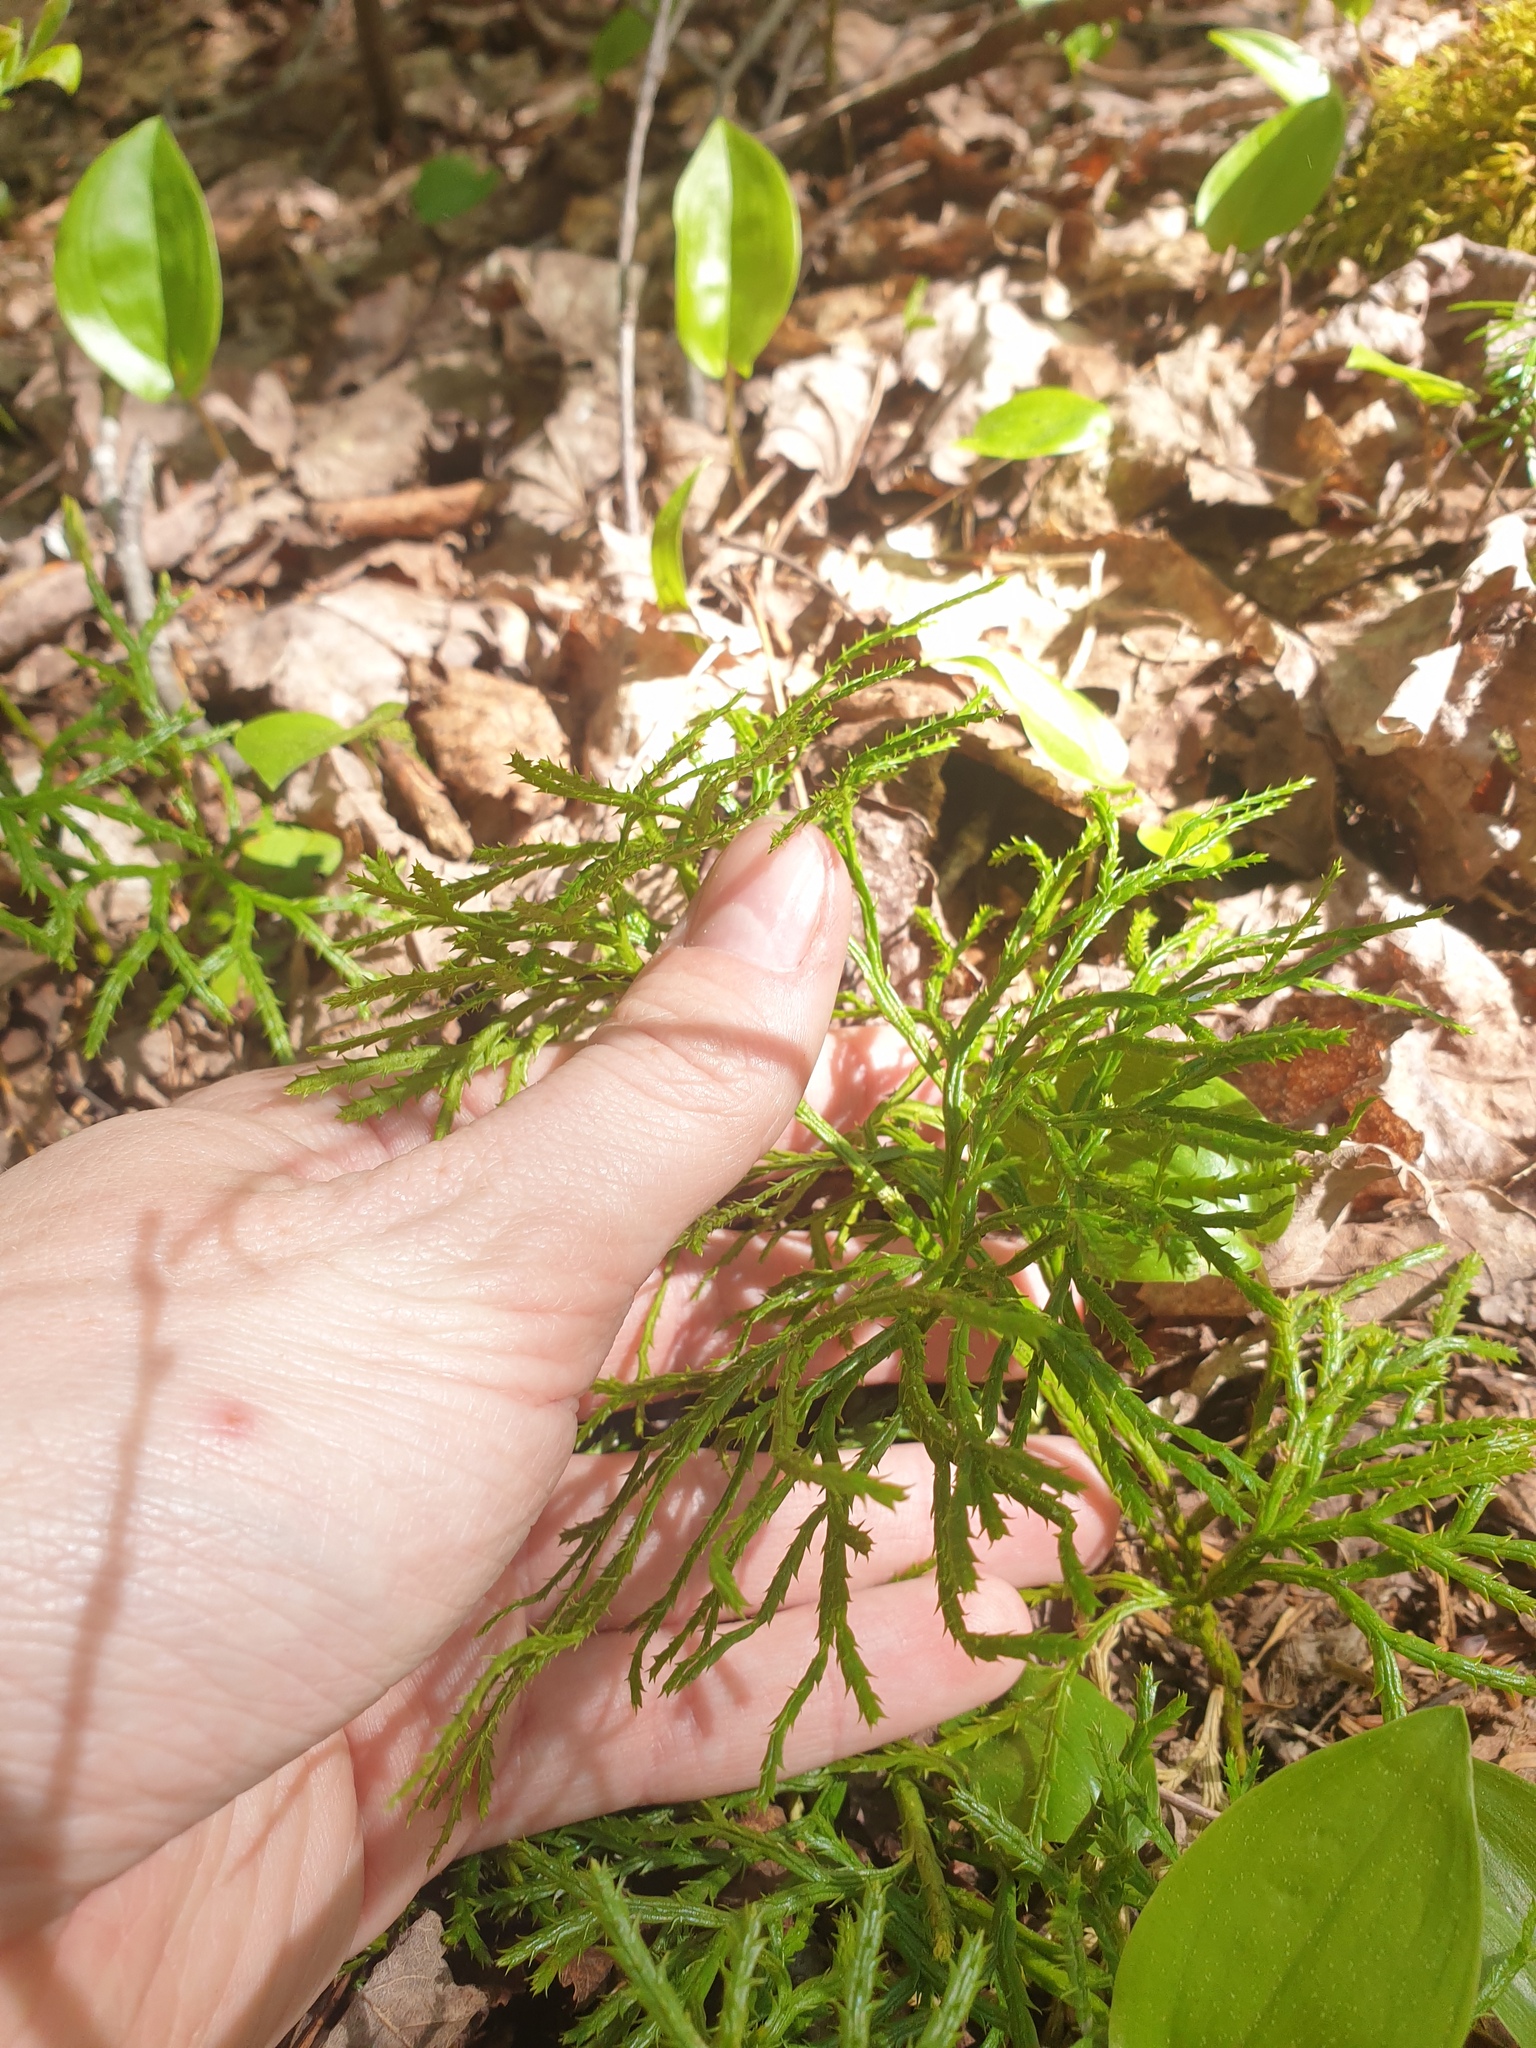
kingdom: Plantae
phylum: Tracheophyta
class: Lycopodiopsida
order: Lycopodiales
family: Lycopodiaceae
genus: Diphasiastrum
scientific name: Diphasiastrum complanatum
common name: Northern running-pine
